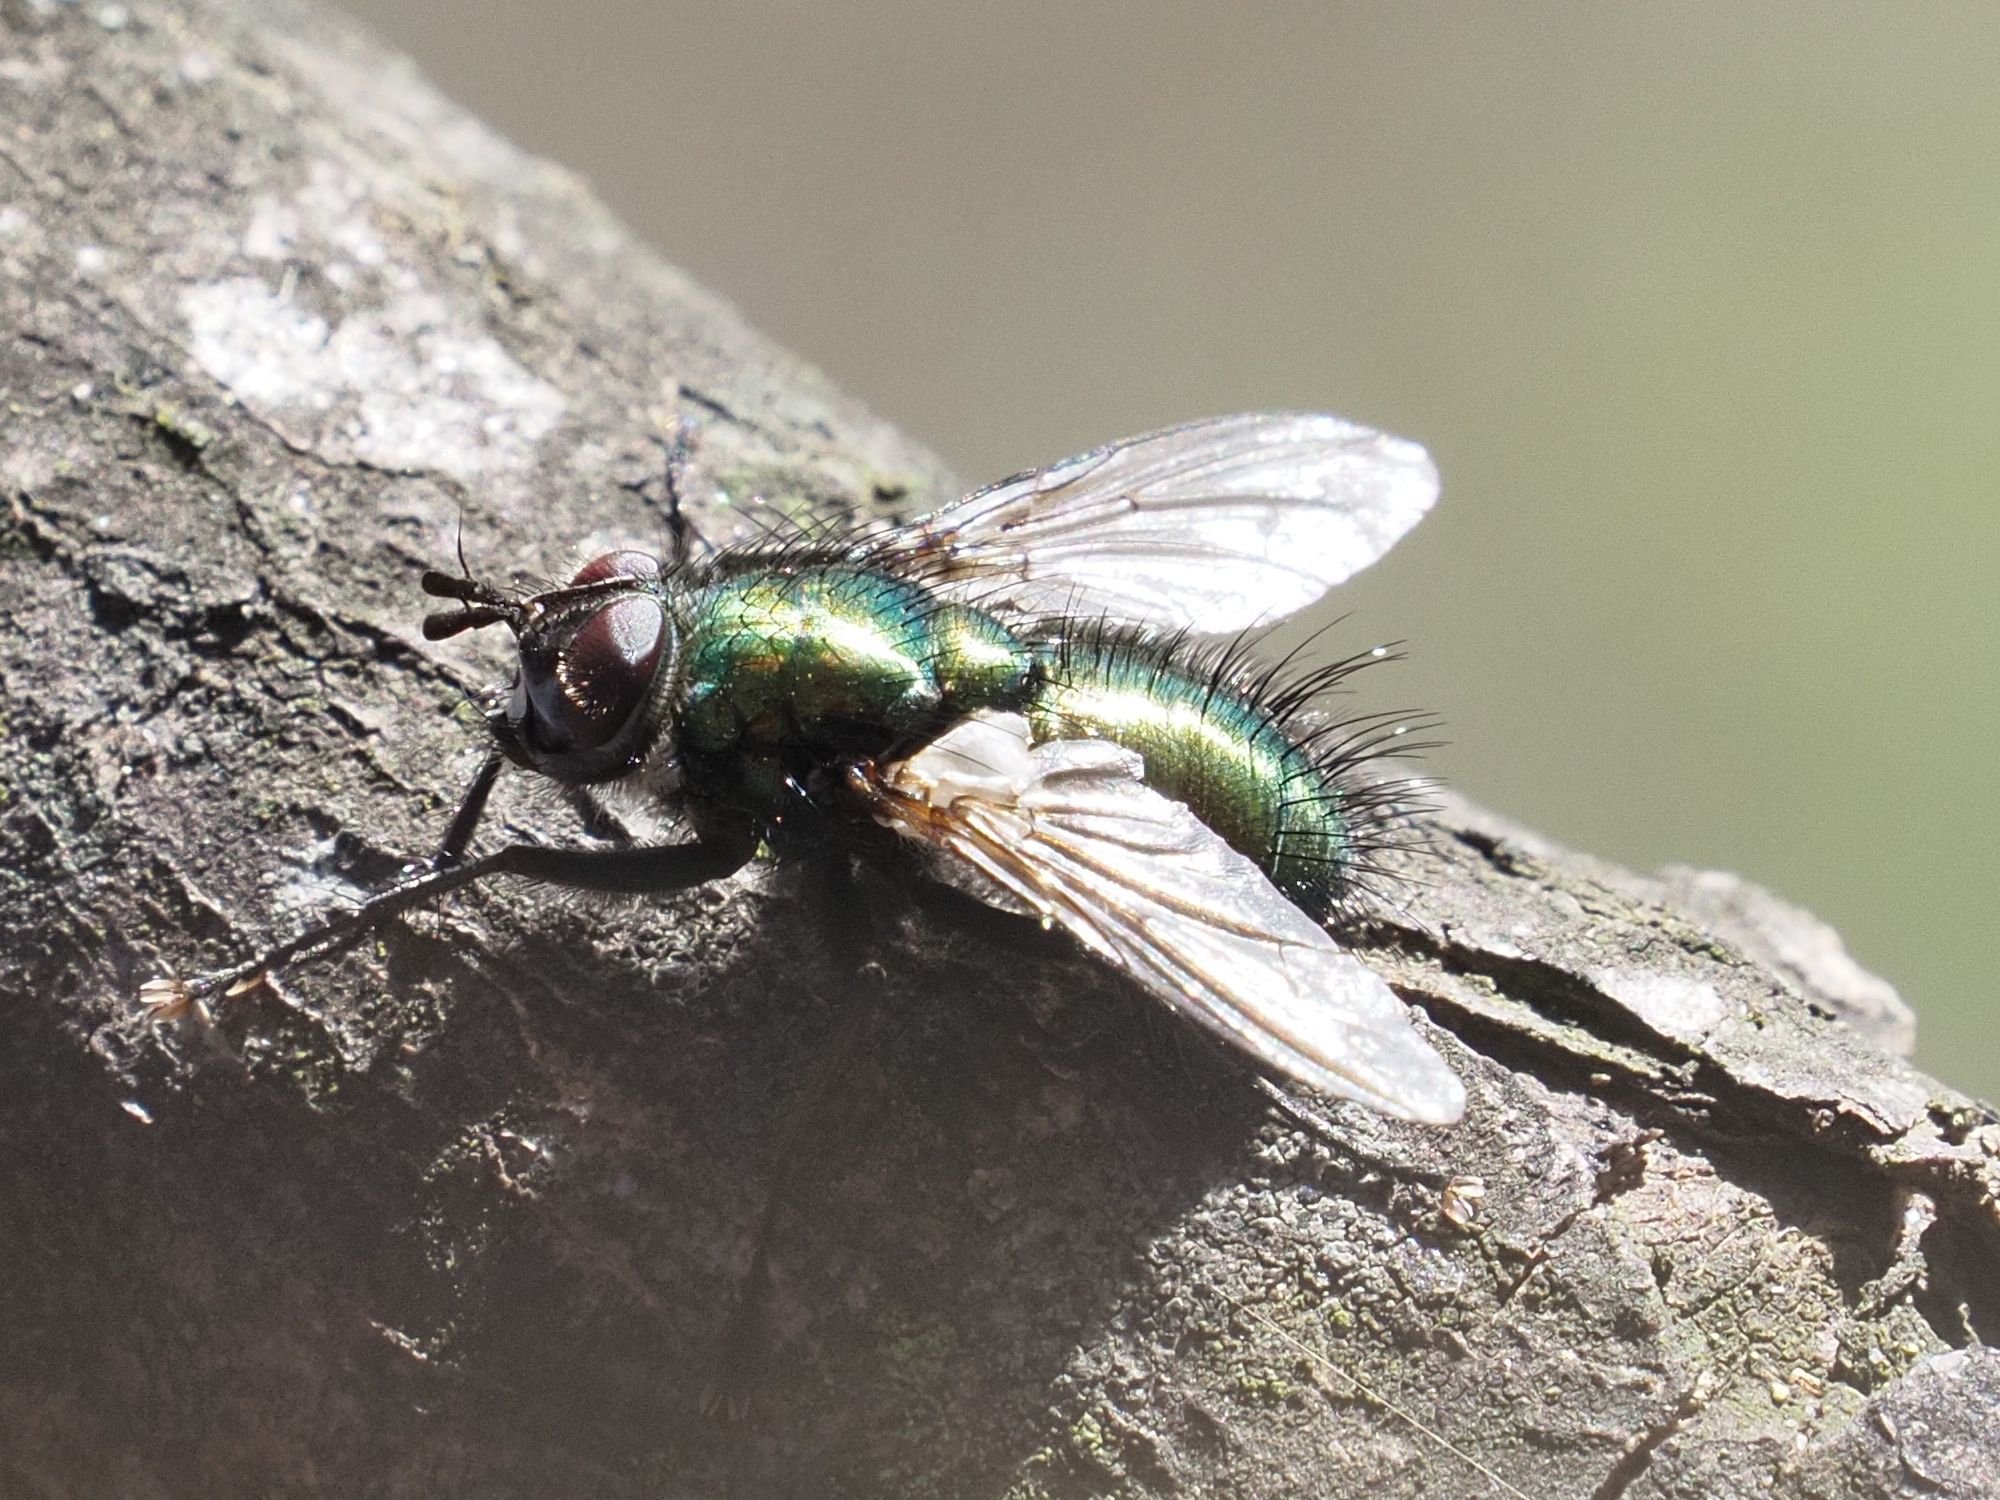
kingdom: Animalia
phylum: Arthropoda
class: Insecta
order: Diptera
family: Tachinidae
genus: Gymnocheta
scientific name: Gymnocheta viridis
